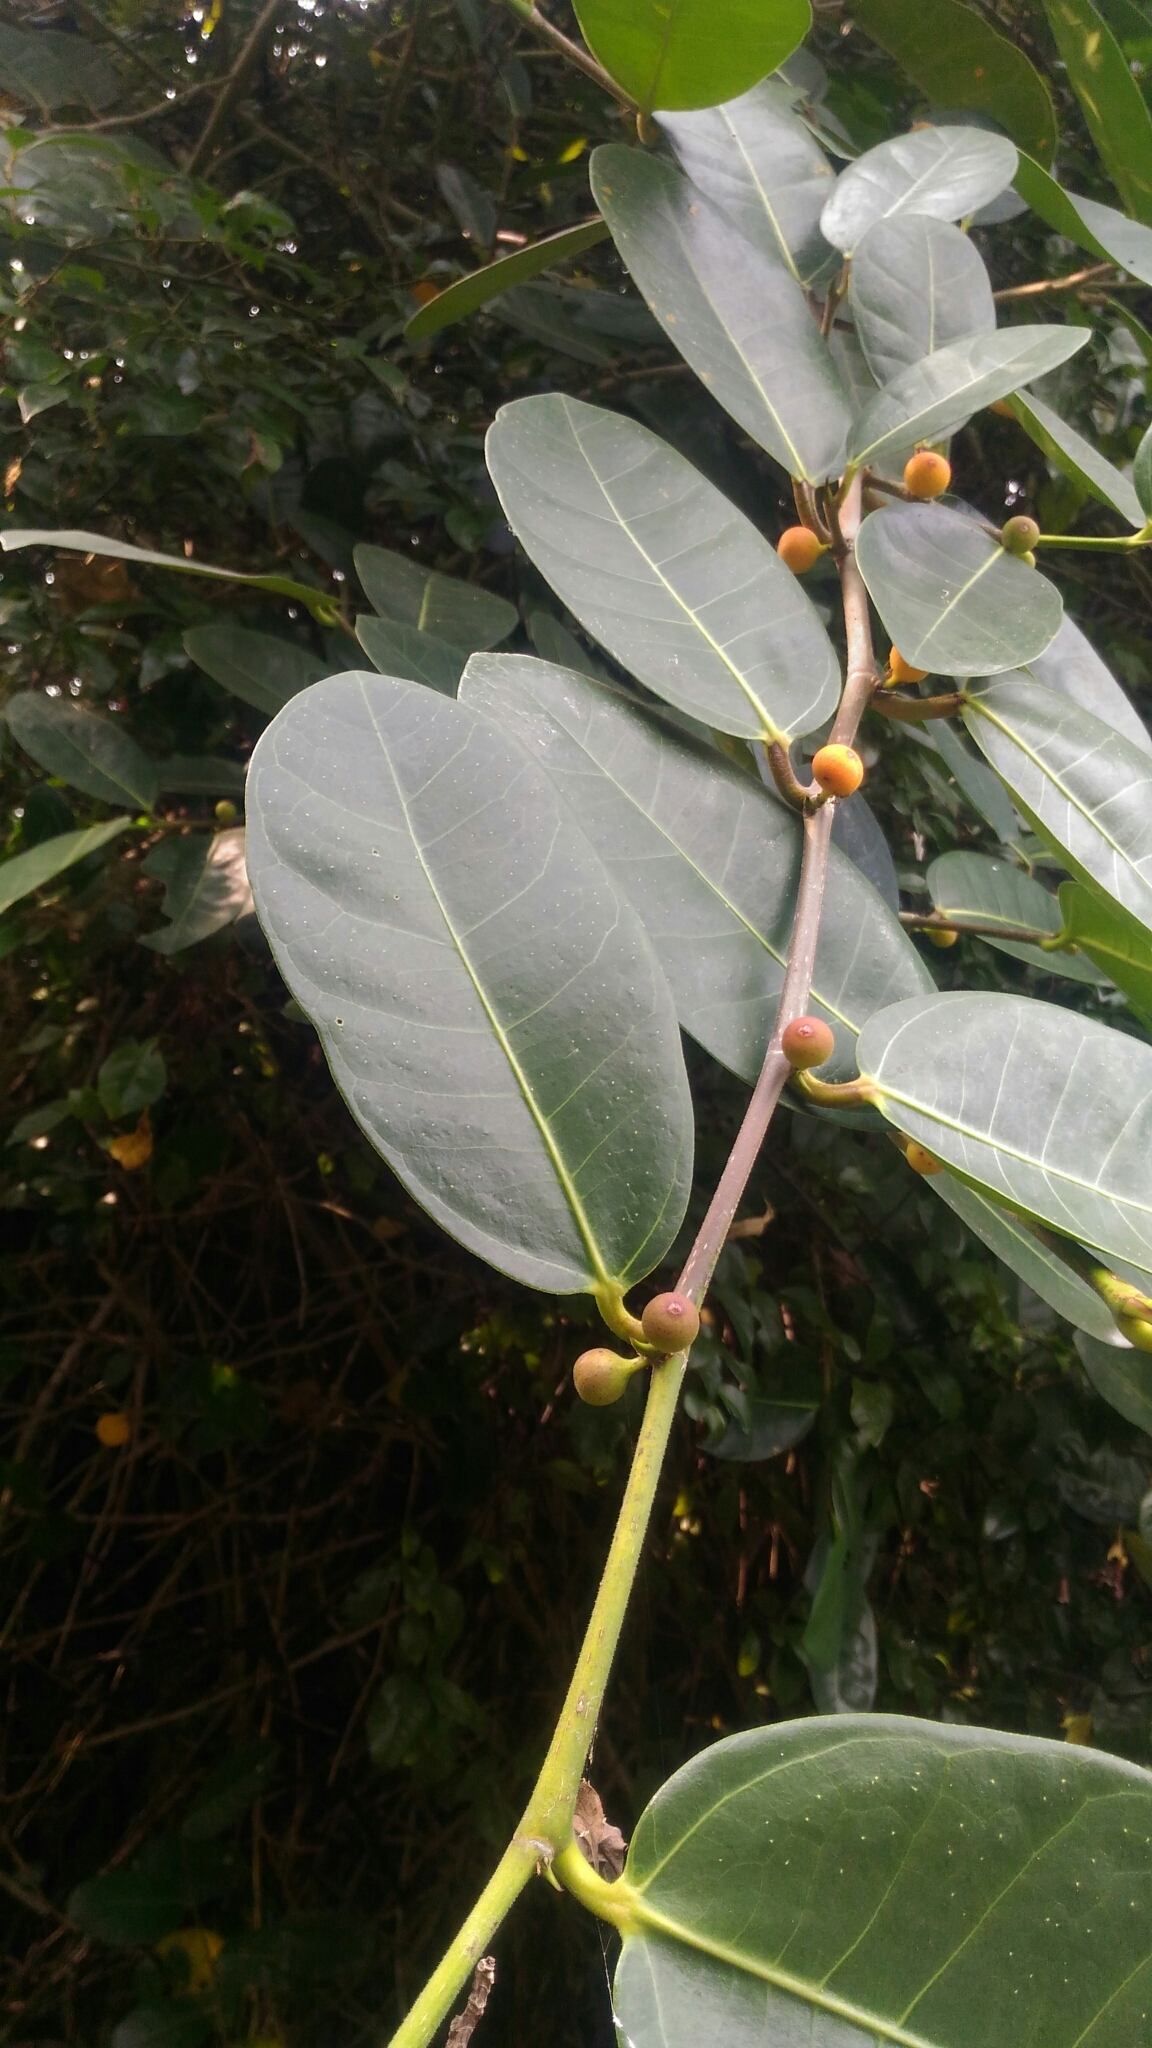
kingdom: Plantae
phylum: Tracheophyta
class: Magnoliopsida
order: Rosales
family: Moraceae
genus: Ficus
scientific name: Ficus tinctoria
